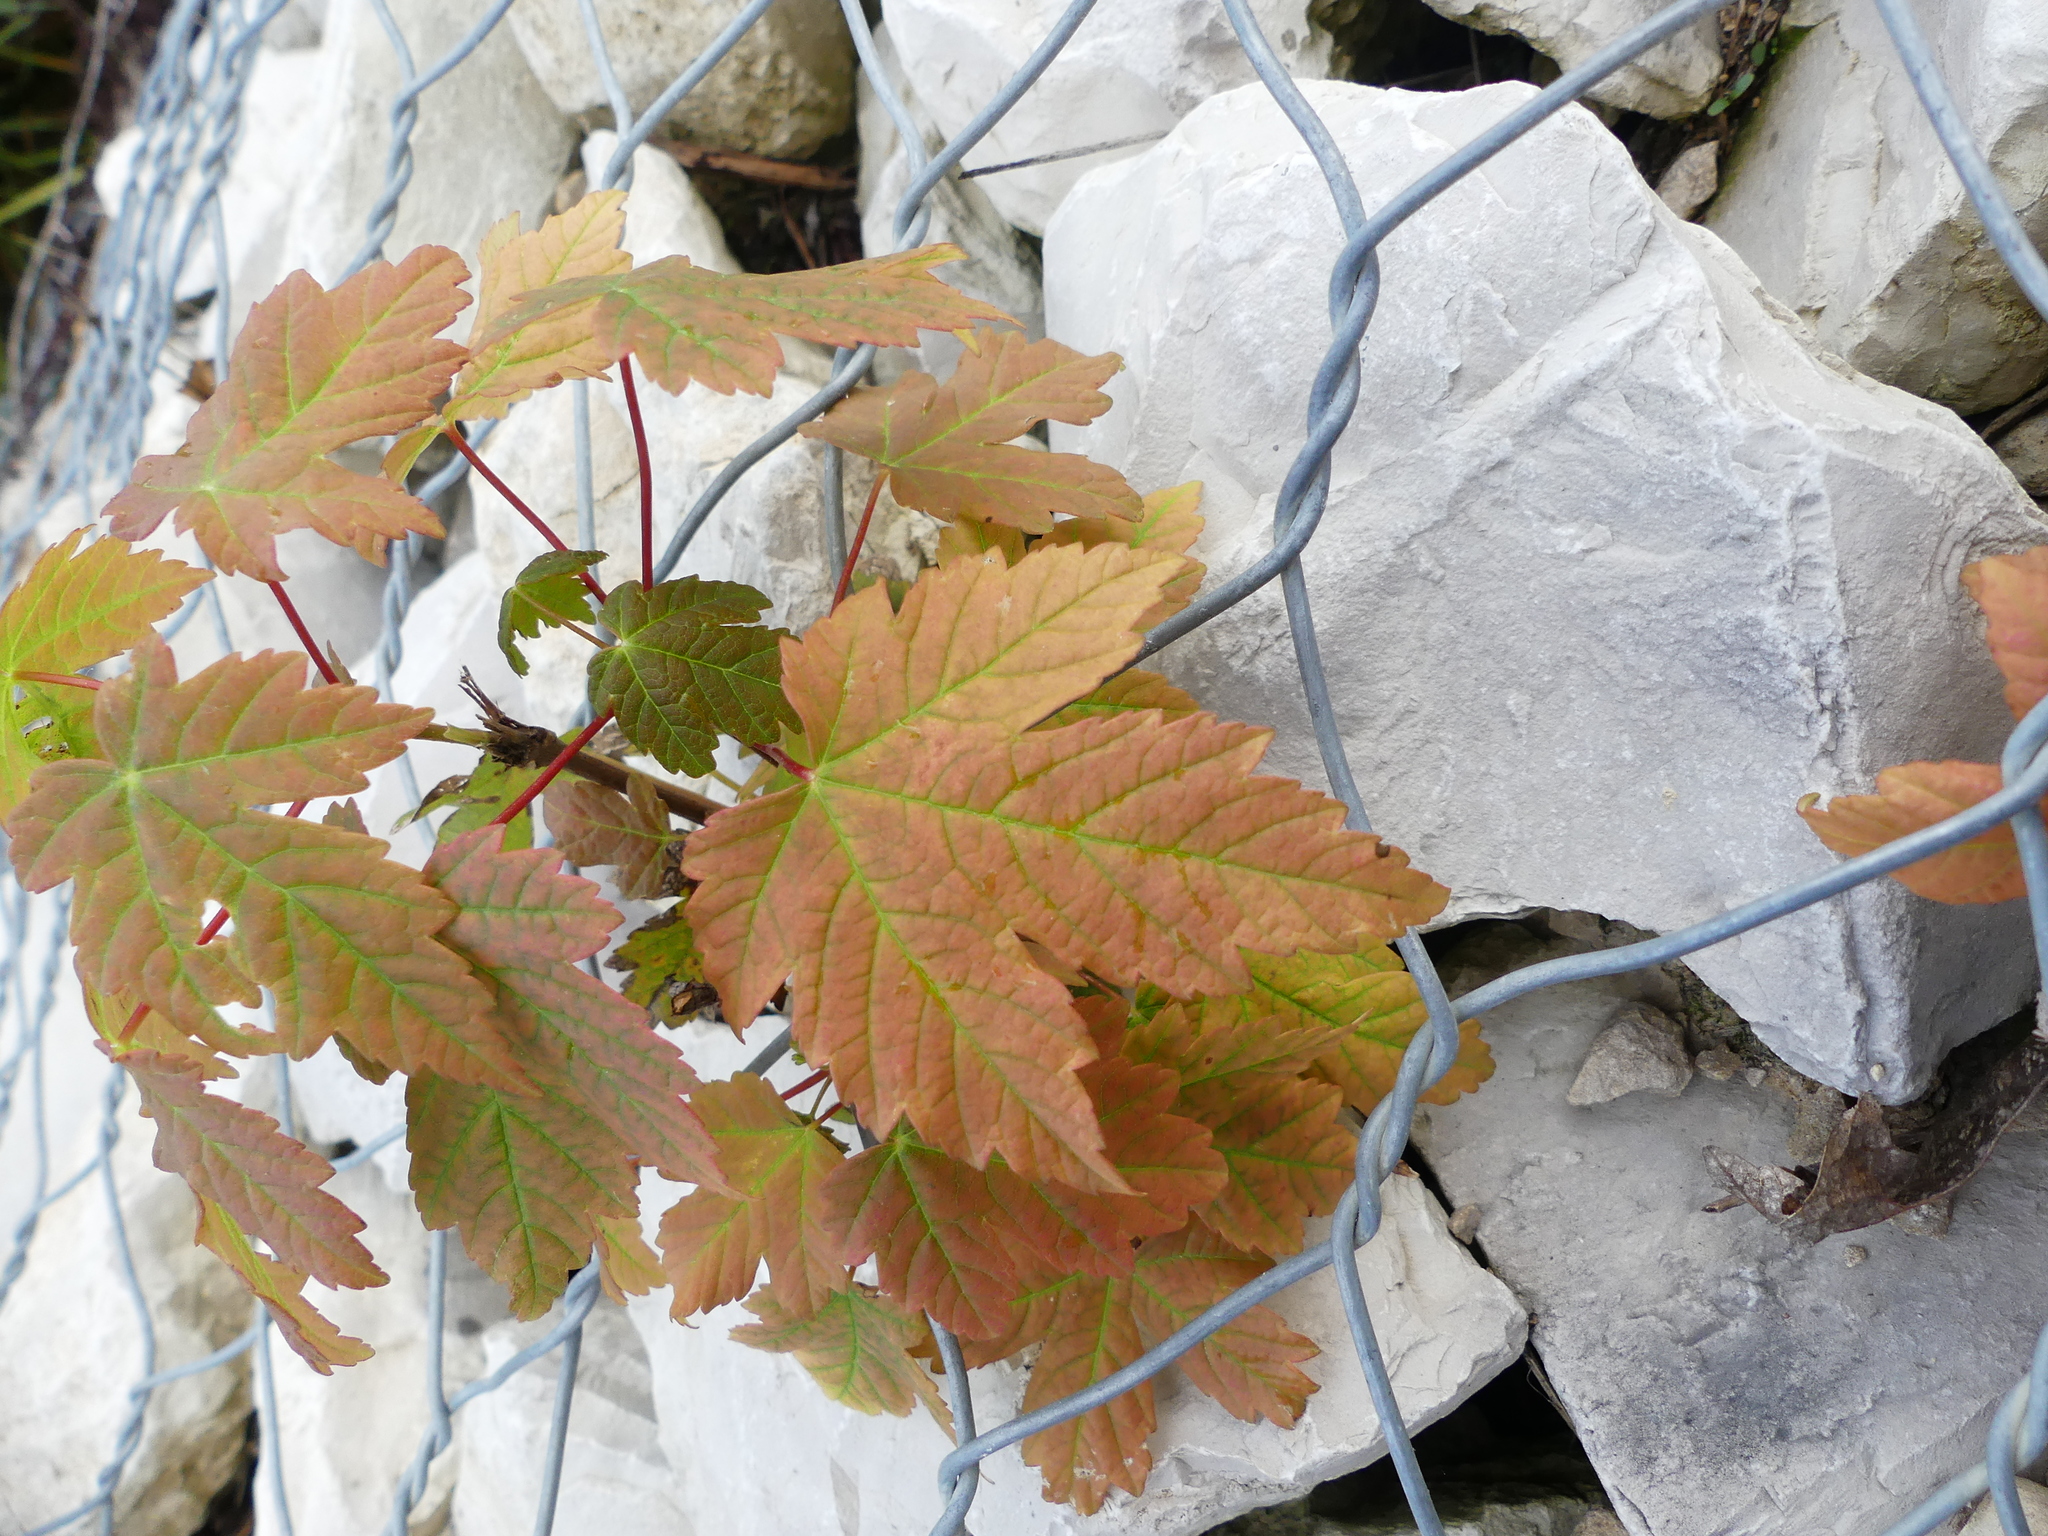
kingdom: Plantae
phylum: Tracheophyta
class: Magnoliopsida
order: Sapindales
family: Sapindaceae
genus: Acer
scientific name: Acer pseudoplatanus
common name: Sycamore
